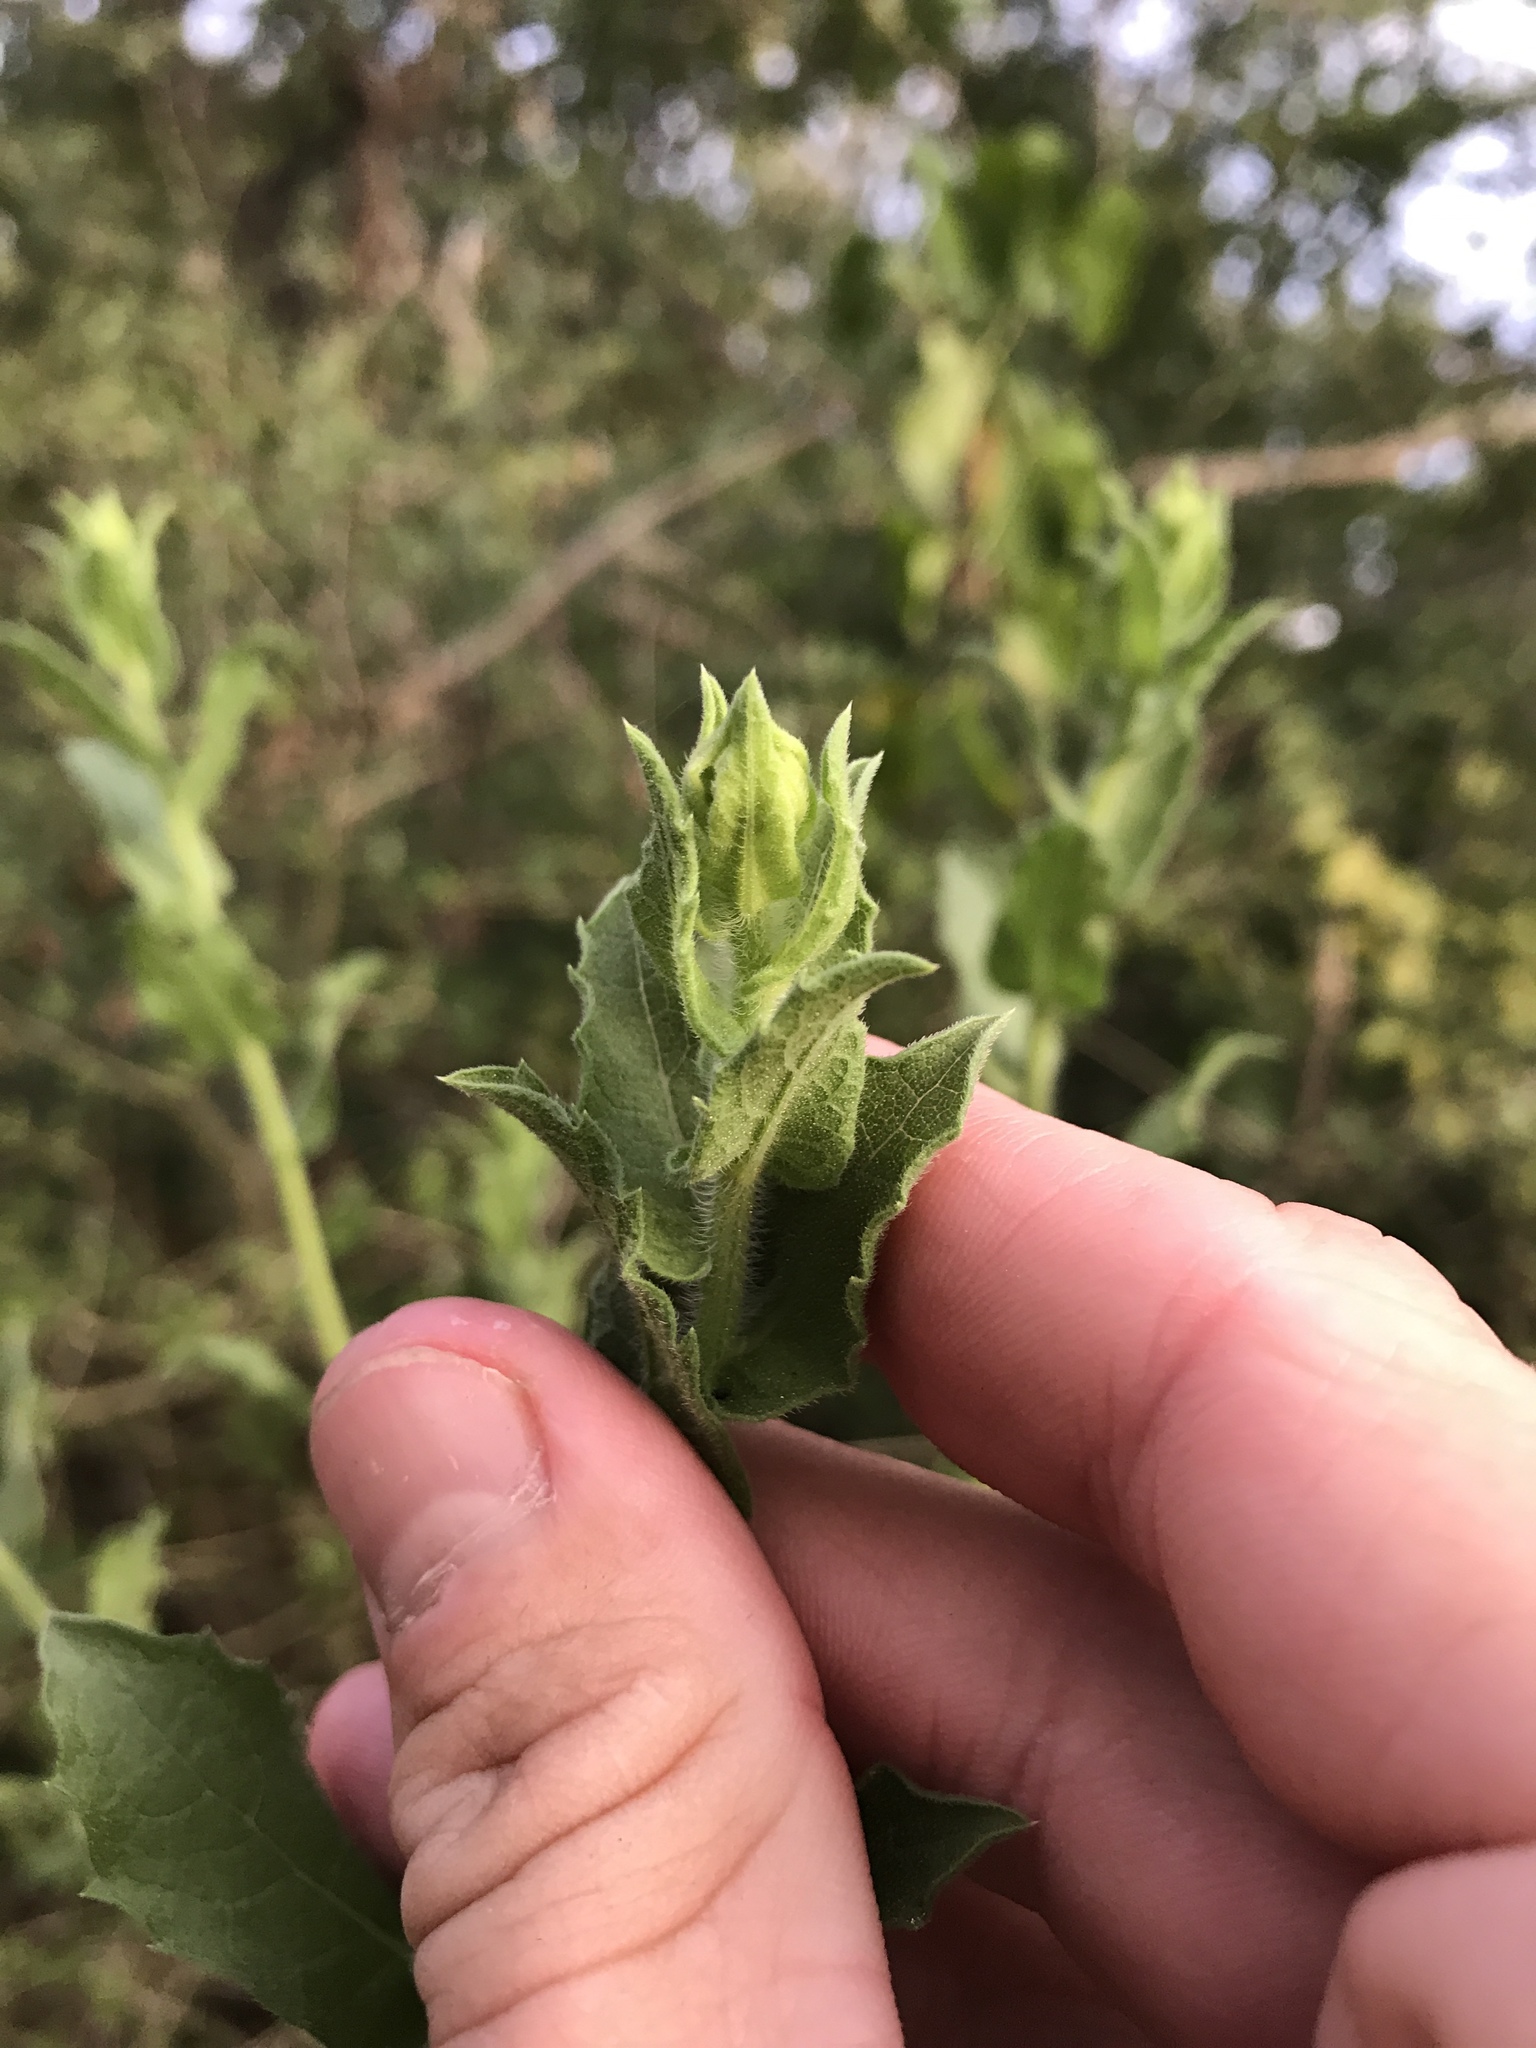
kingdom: Plantae
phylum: Tracheophyta
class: Magnoliopsida
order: Asterales
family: Asteraceae
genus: Heterotheca
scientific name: Heterotheca subaxillaris
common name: Camphorweed
